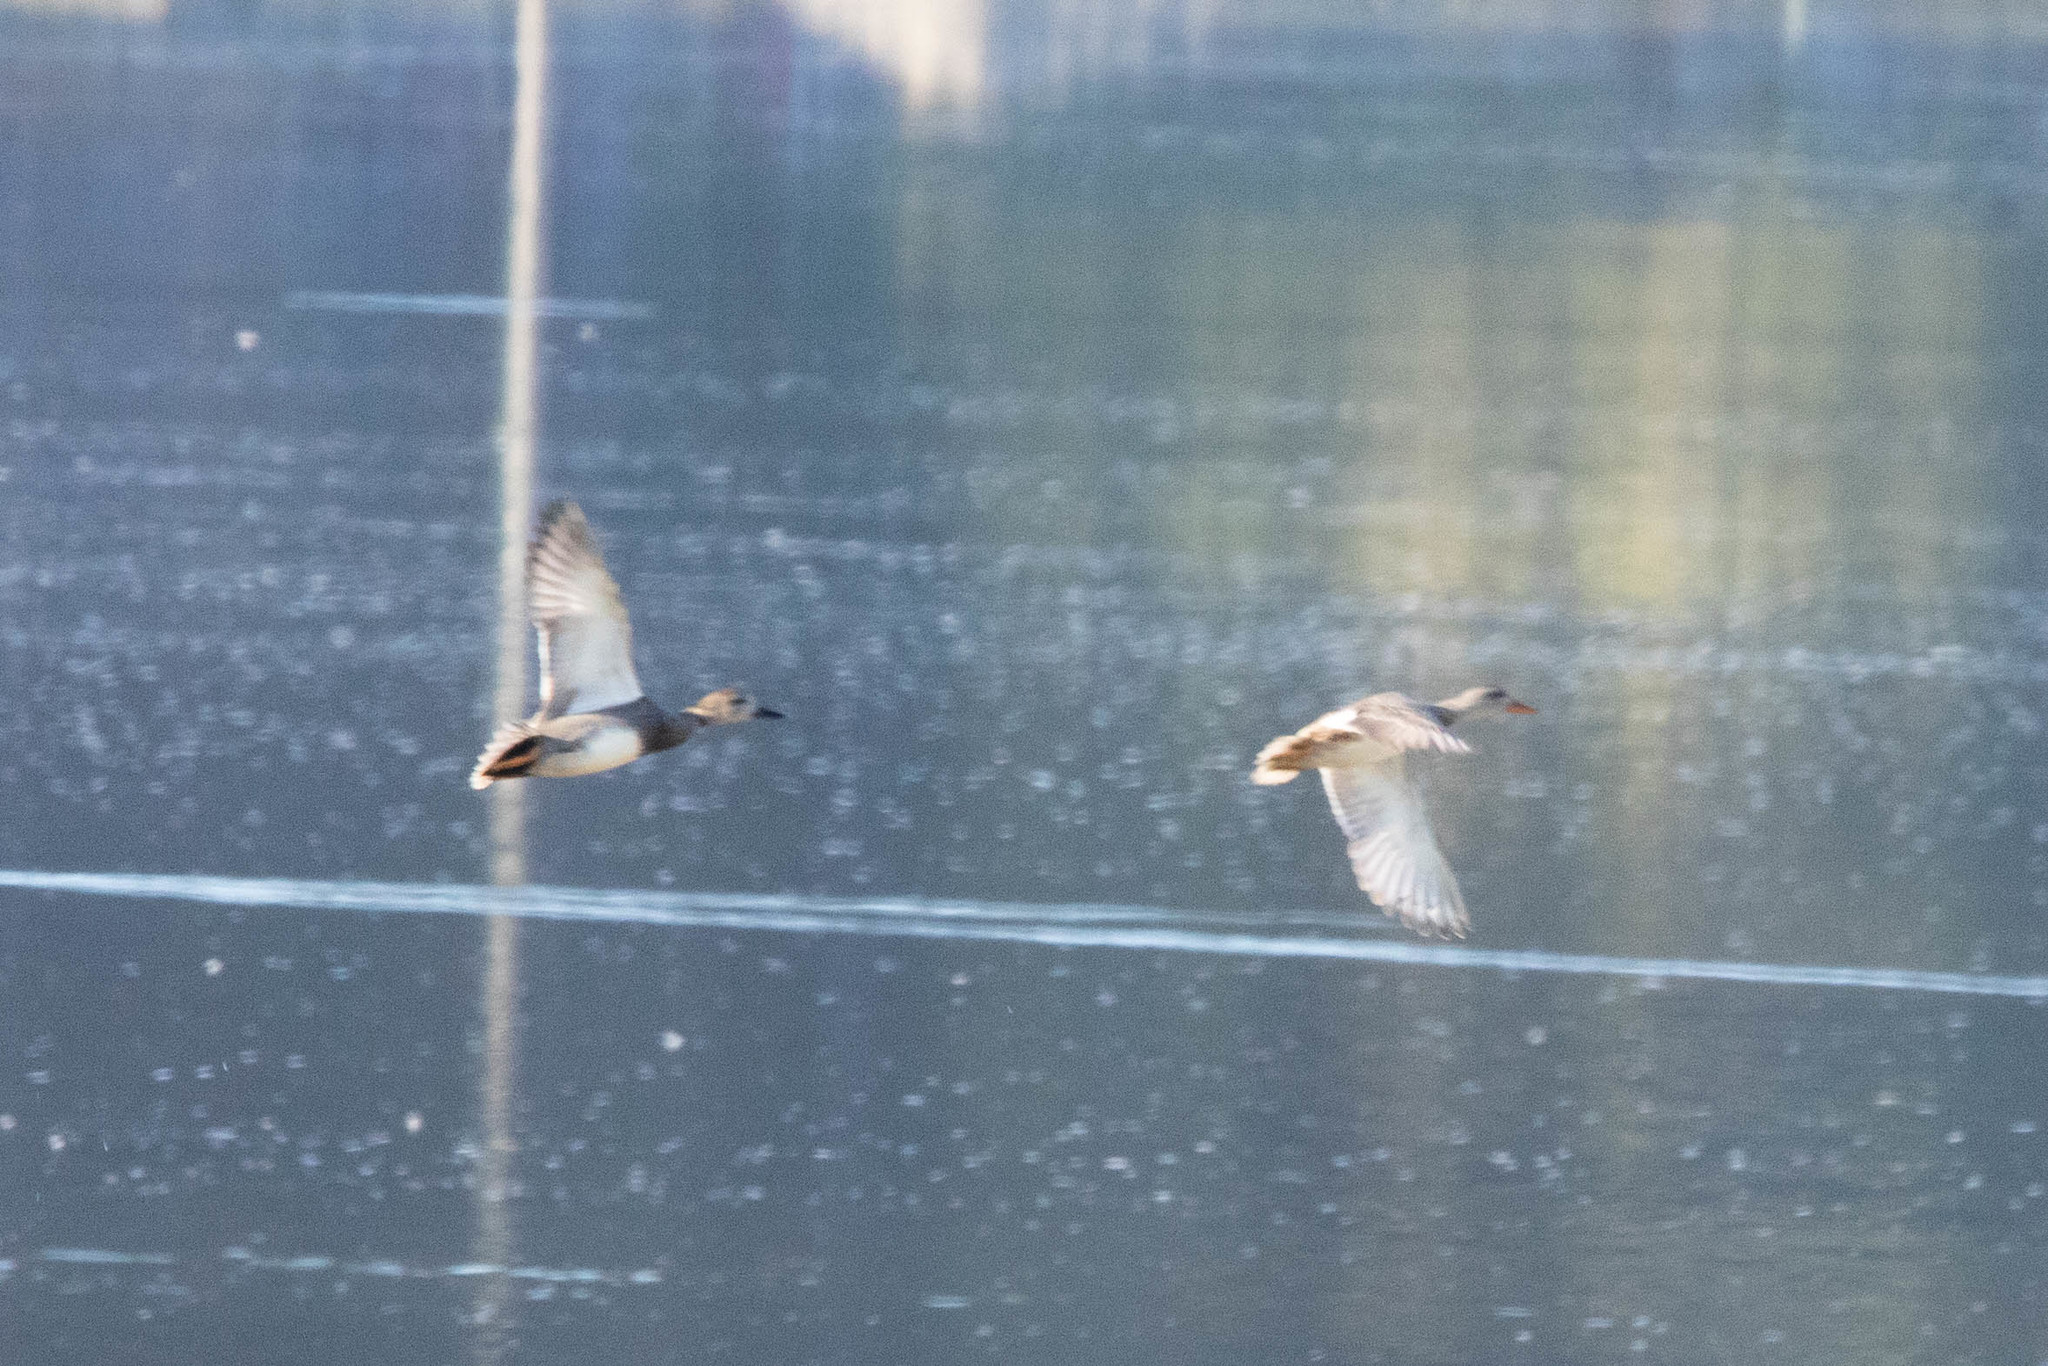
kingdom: Animalia
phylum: Chordata
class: Aves
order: Anseriformes
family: Anatidae
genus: Mareca
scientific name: Mareca strepera
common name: Gadwall
